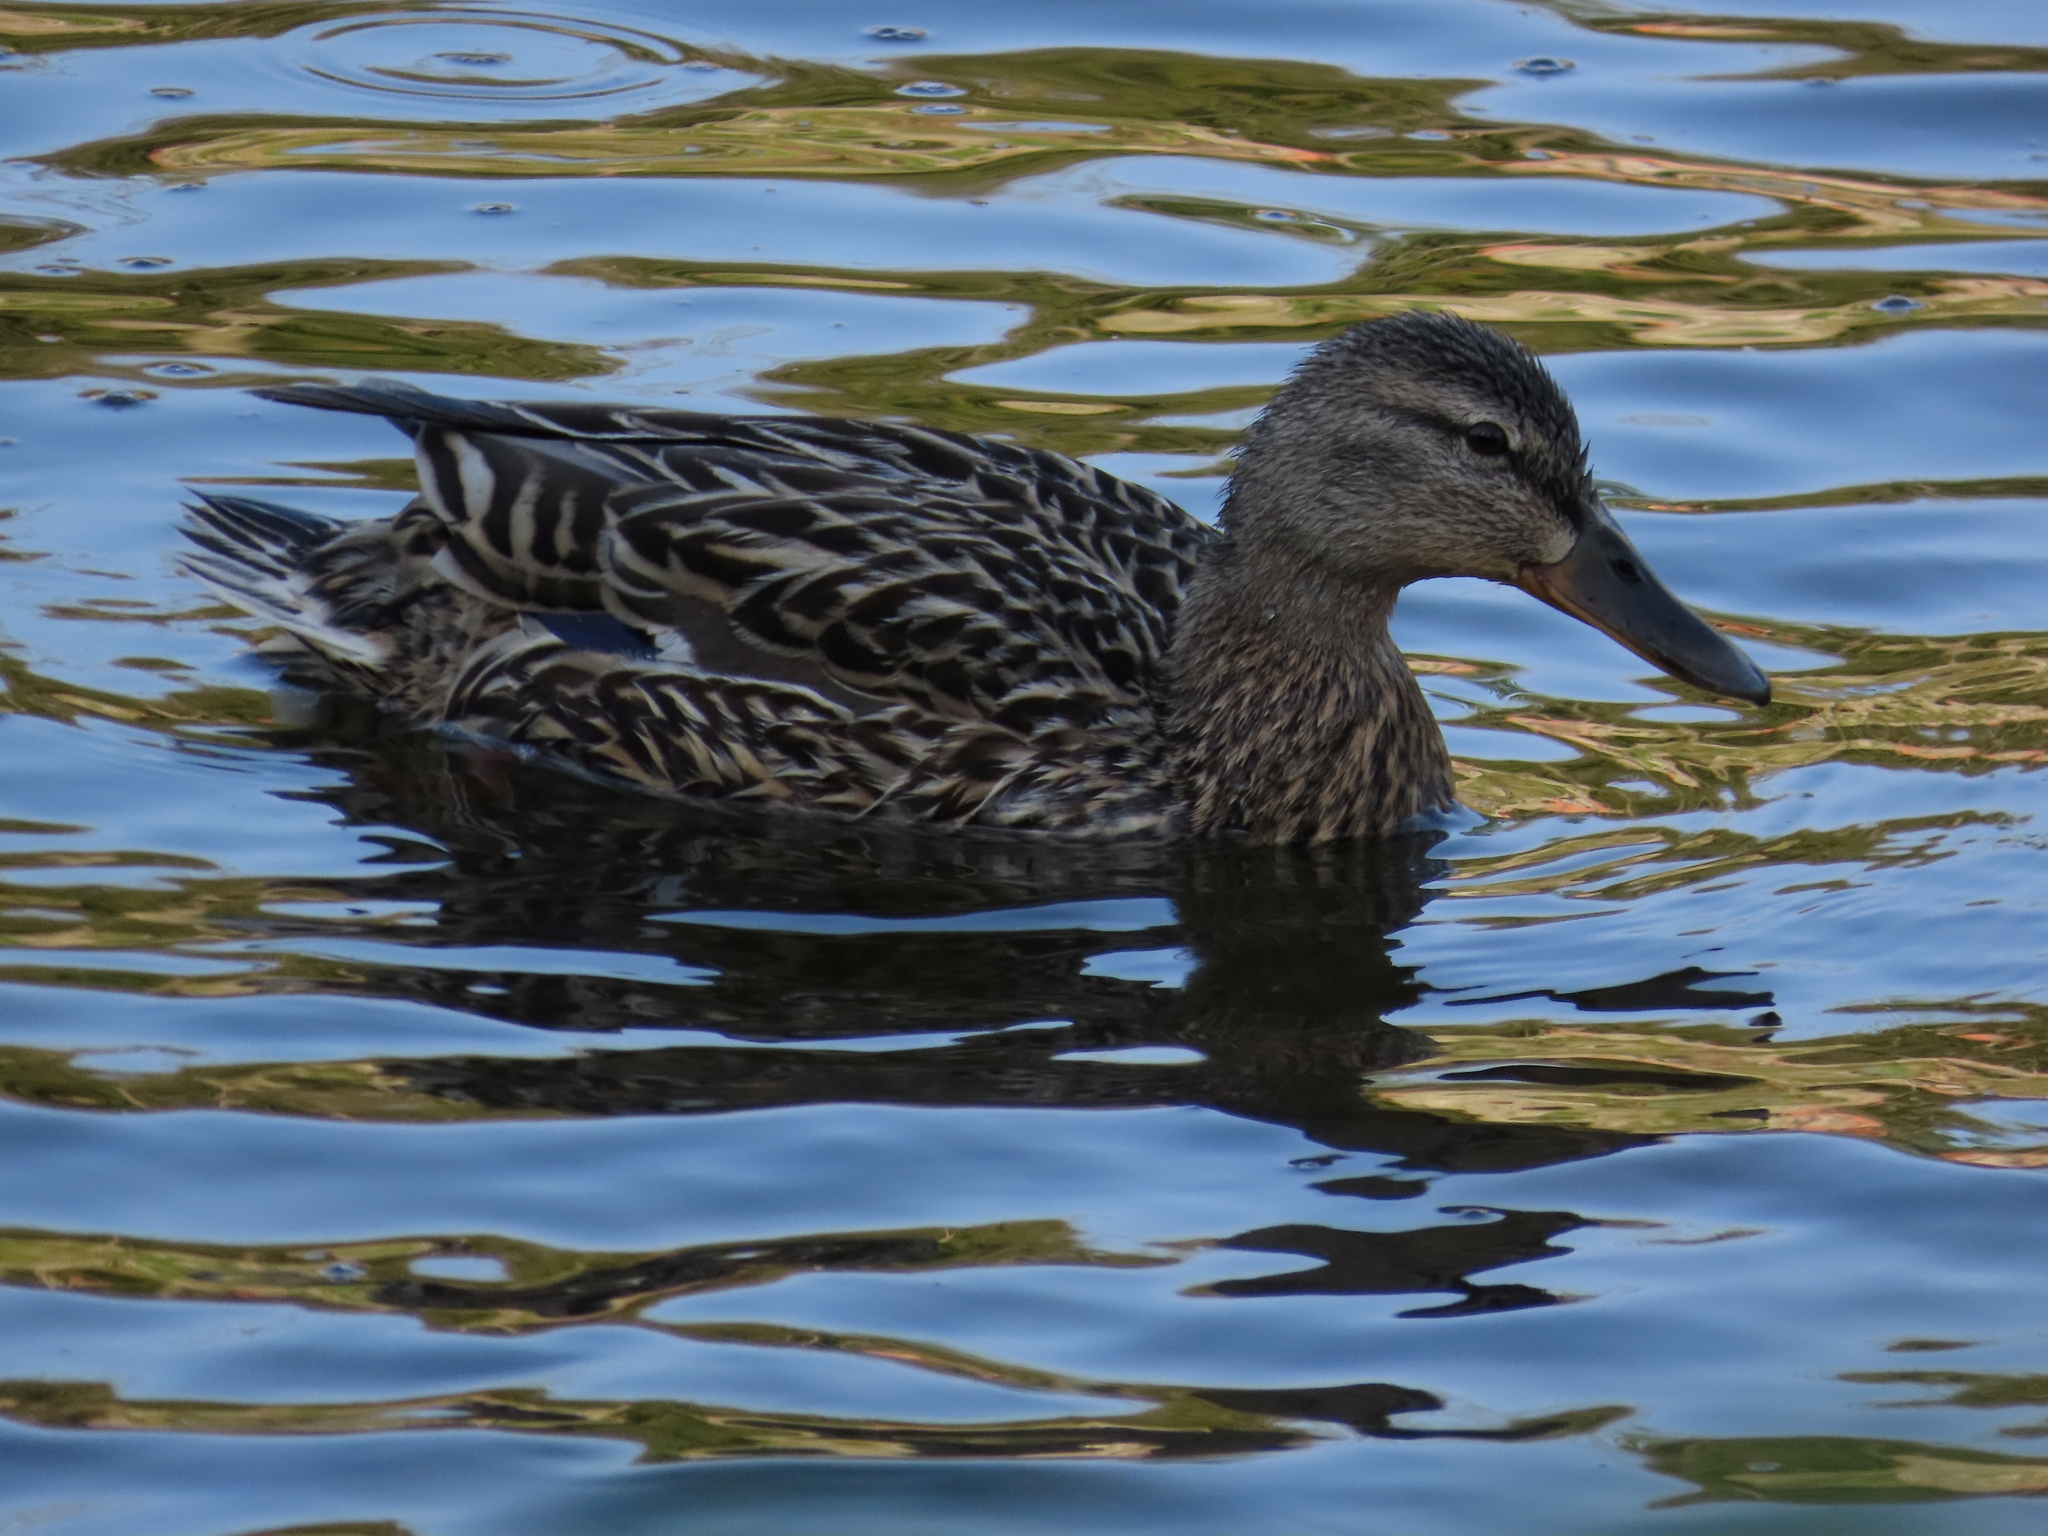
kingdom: Animalia
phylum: Chordata
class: Aves
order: Anseriformes
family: Anatidae
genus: Anas
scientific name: Anas platyrhynchos
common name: Mallard
